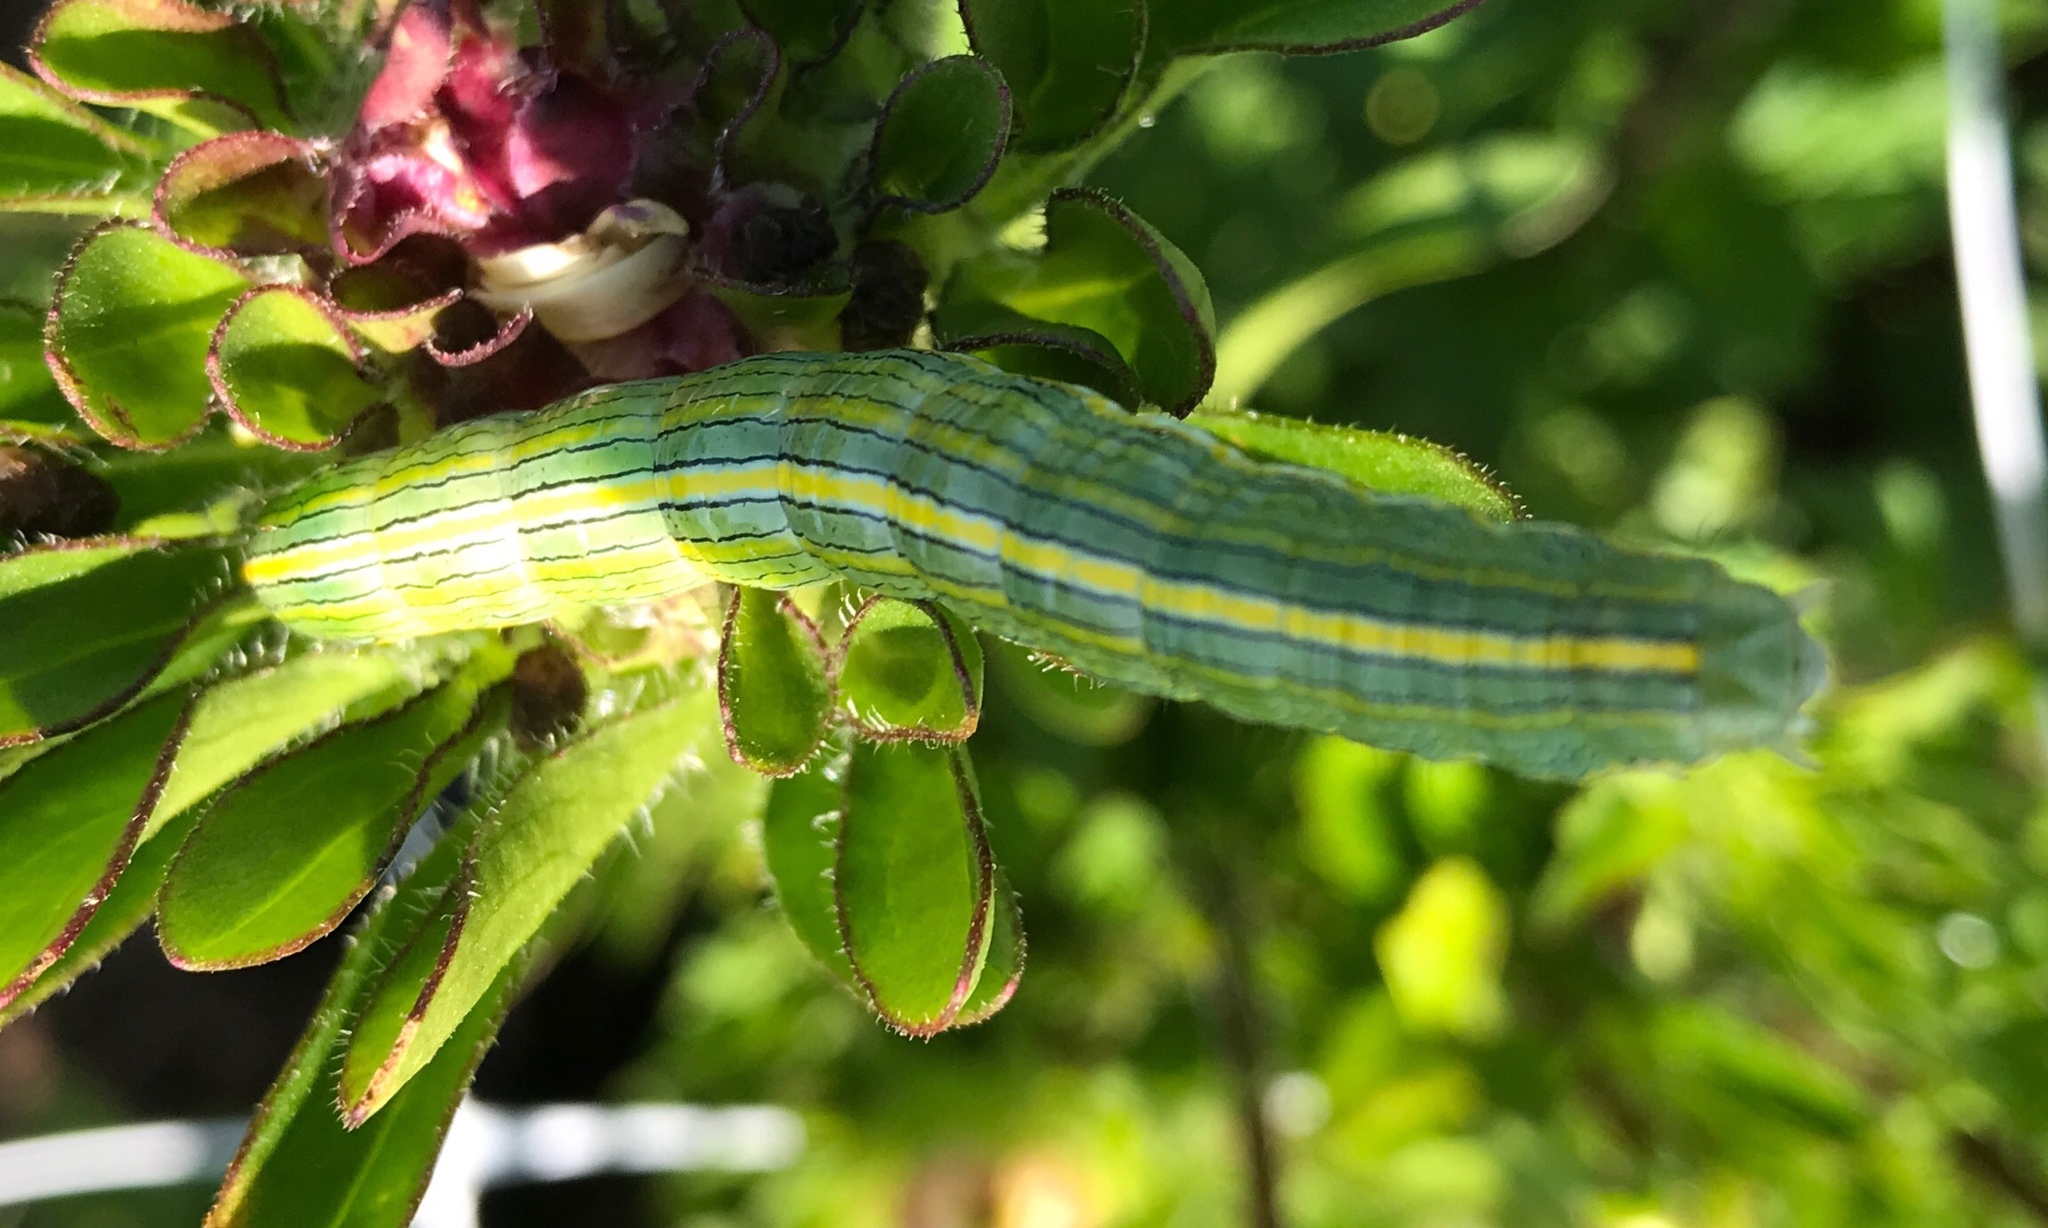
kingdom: Animalia
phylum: Arthropoda
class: Insecta
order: Lepidoptera
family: Noctuidae
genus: Cucullia
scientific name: Cucullia asteroides
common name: Asteroid moth
